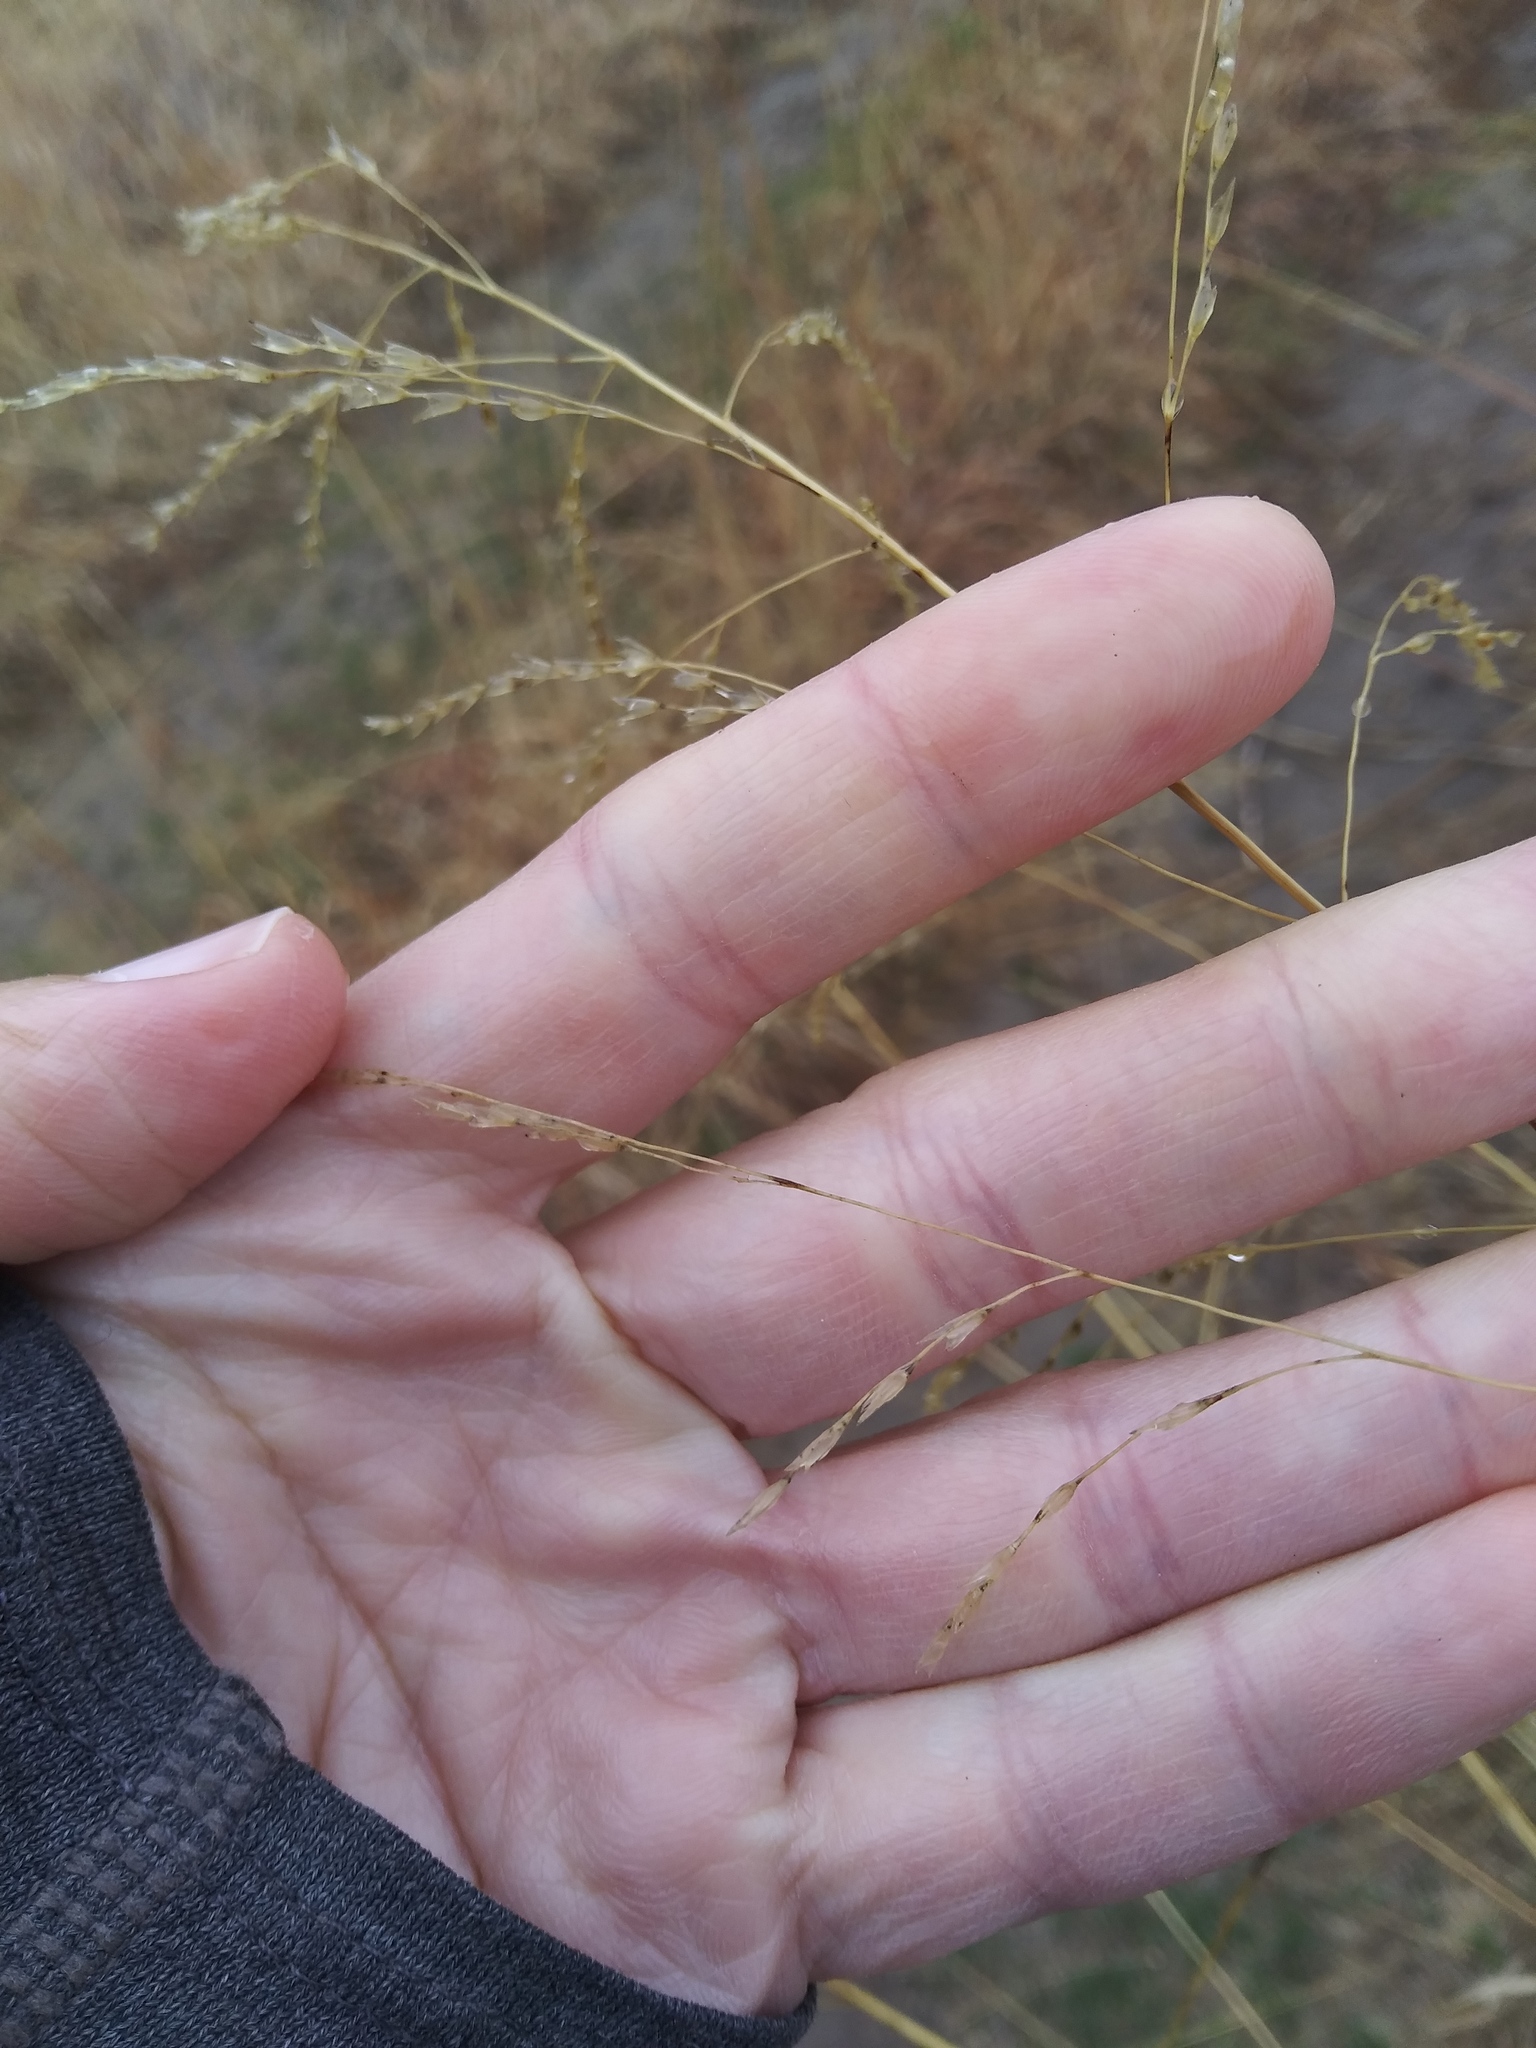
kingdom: Plantae
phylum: Tracheophyta
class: Liliopsida
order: Poales
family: Poaceae
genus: Tridens
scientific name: Tridens flavus
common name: Purpletop
